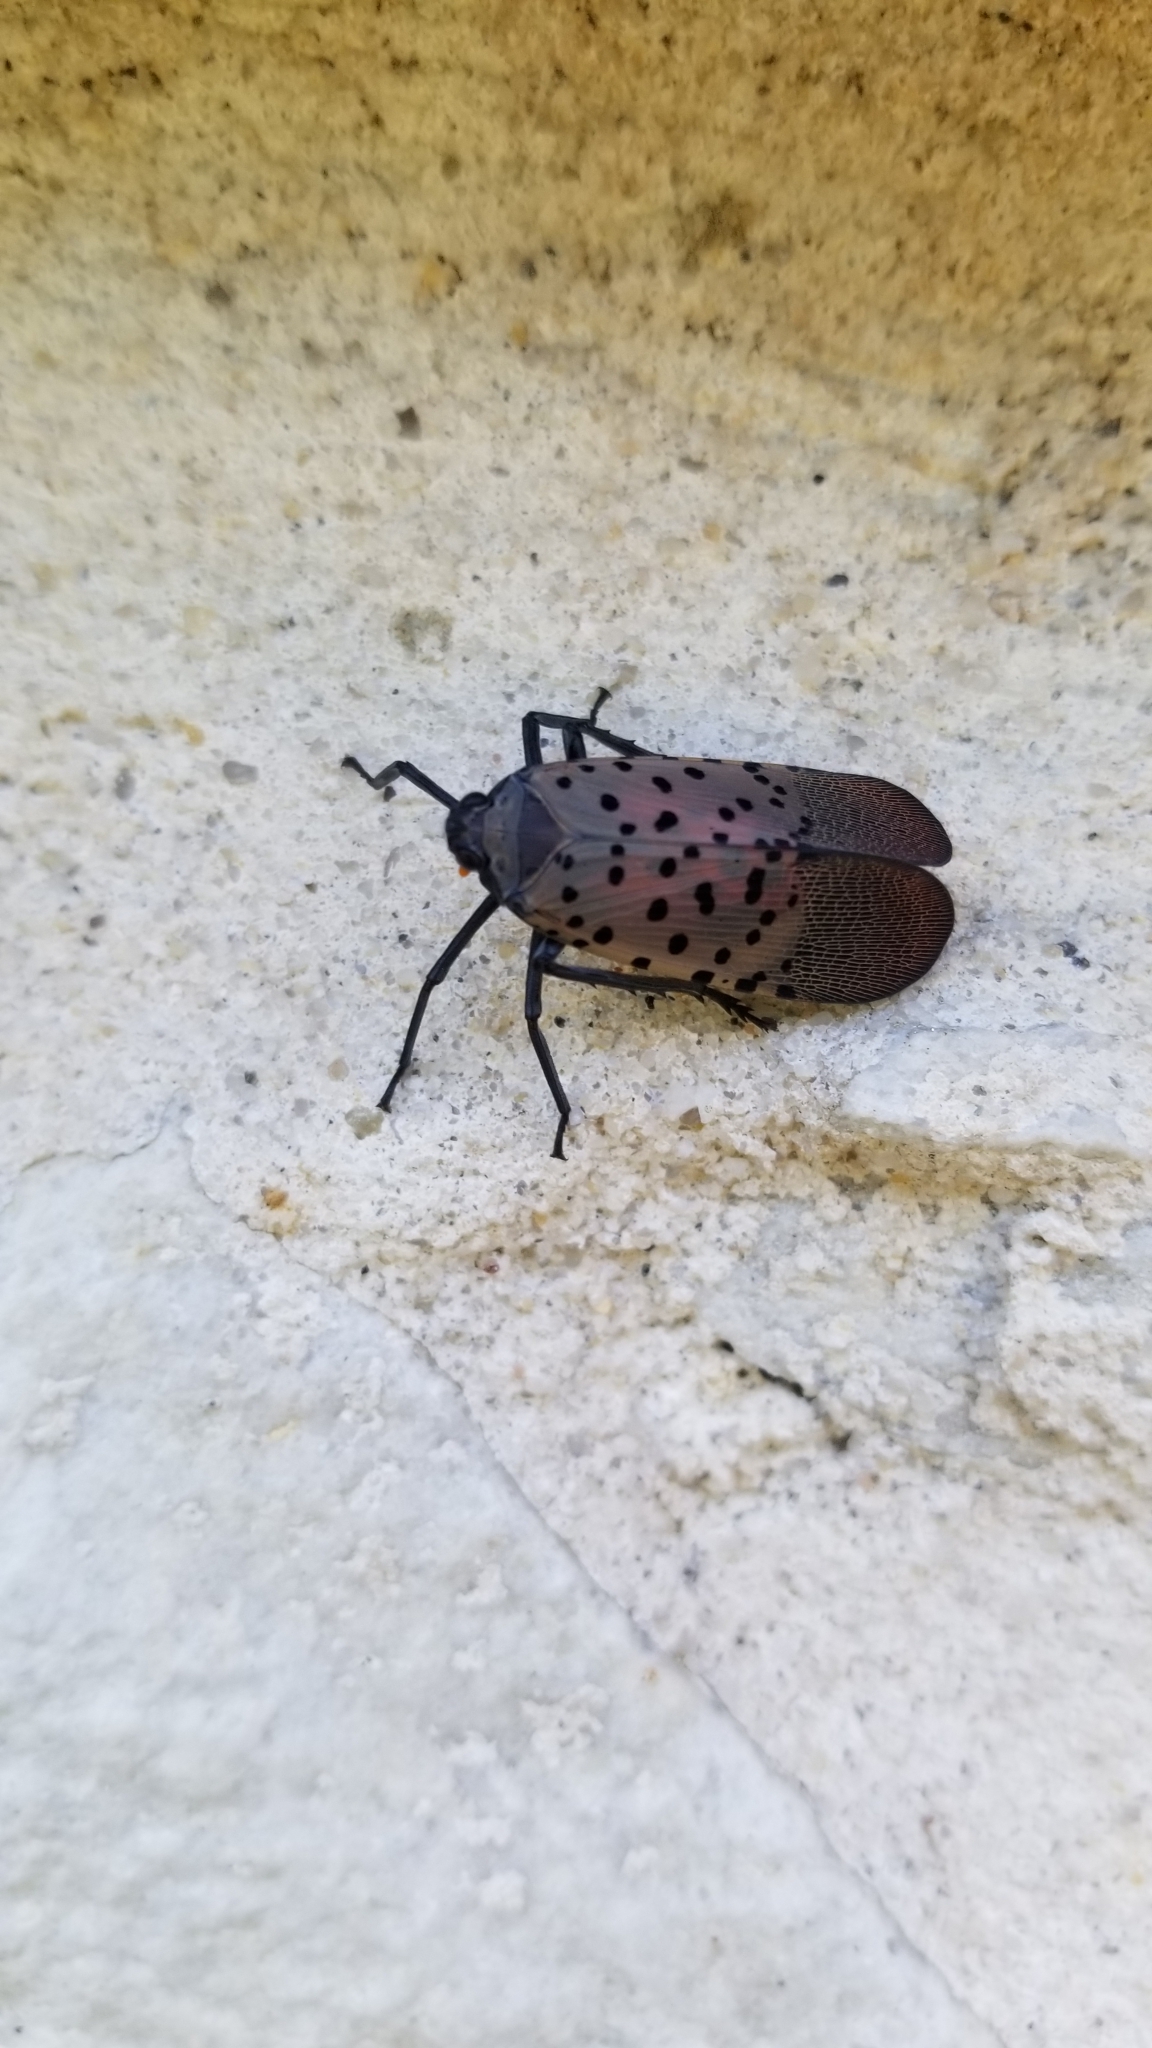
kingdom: Animalia
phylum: Arthropoda
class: Insecta
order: Hemiptera
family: Fulgoridae
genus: Lycorma
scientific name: Lycorma delicatula
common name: Spotted lanternfly
